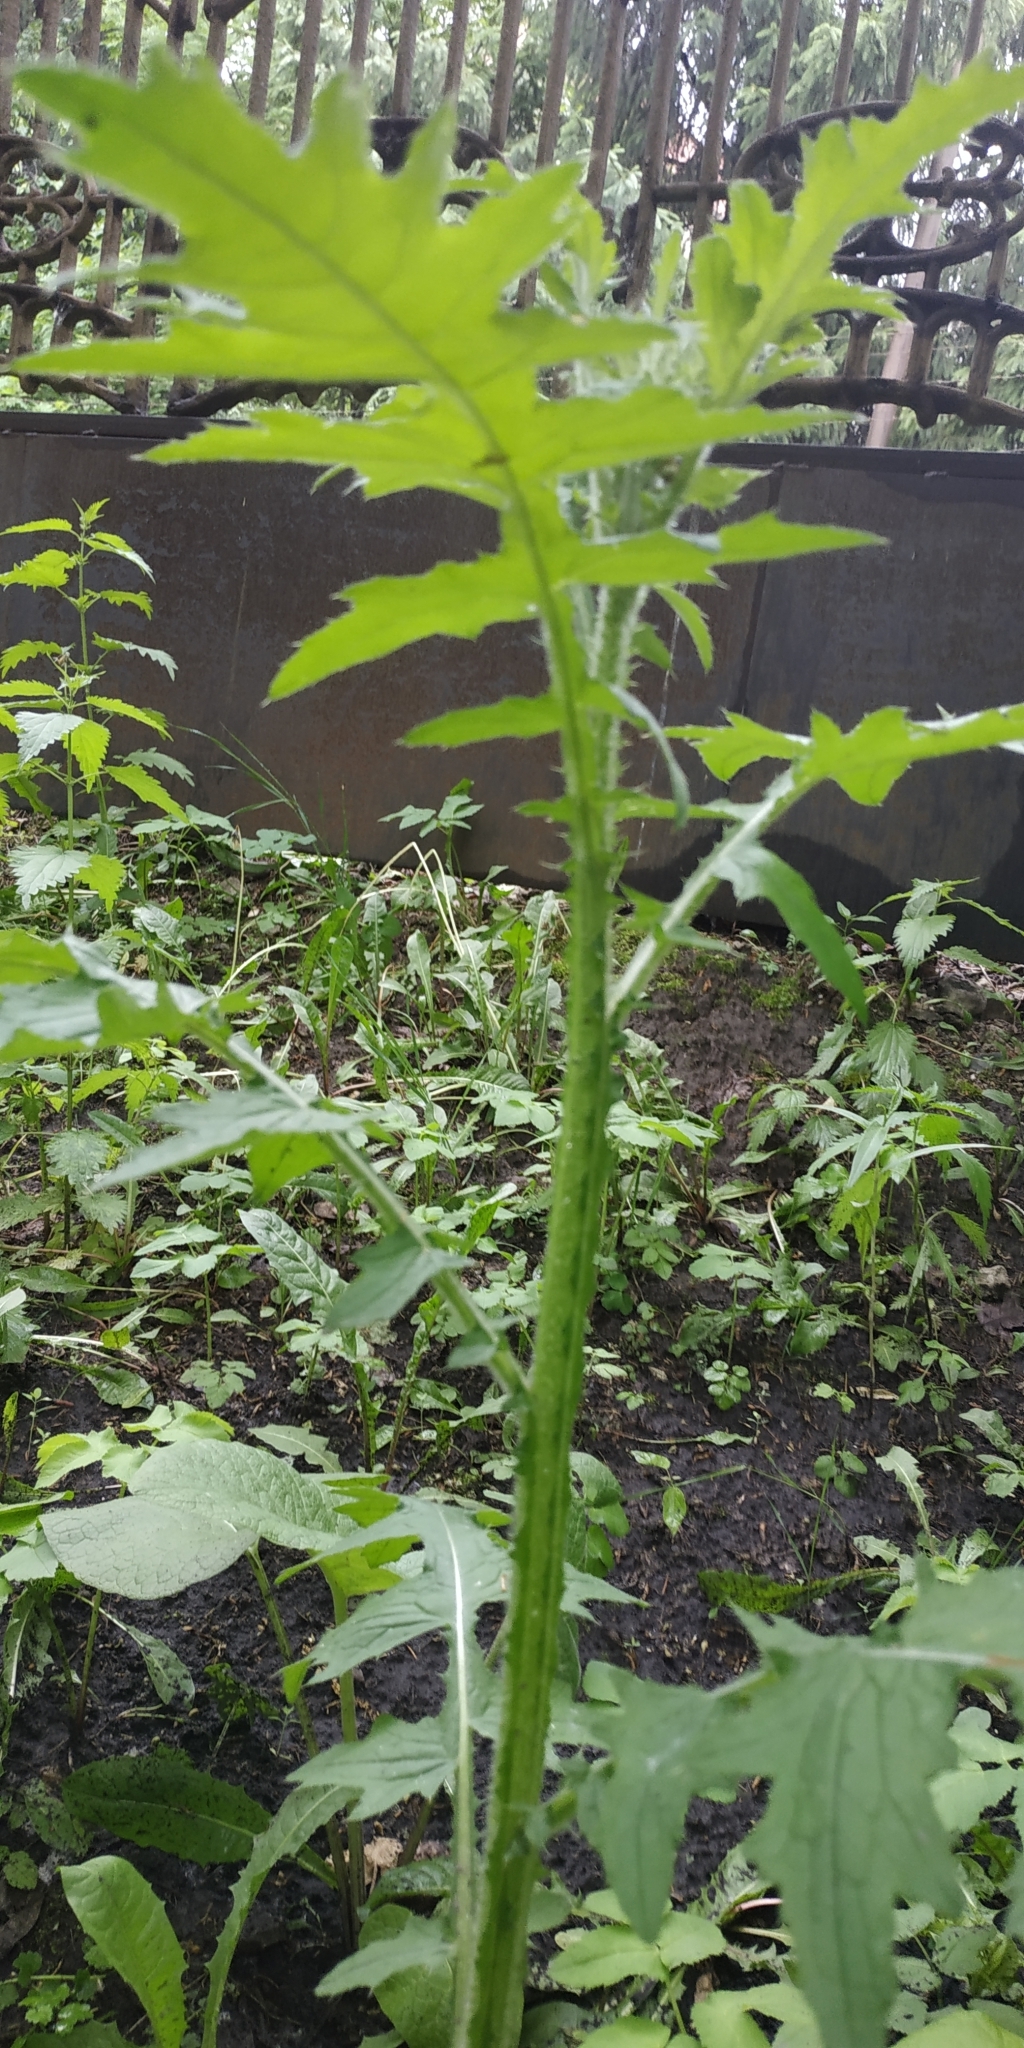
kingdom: Plantae
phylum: Tracheophyta
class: Magnoliopsida
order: Asterales
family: Asteraceae
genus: Carduus
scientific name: Carduus crispus
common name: Welted thistle
